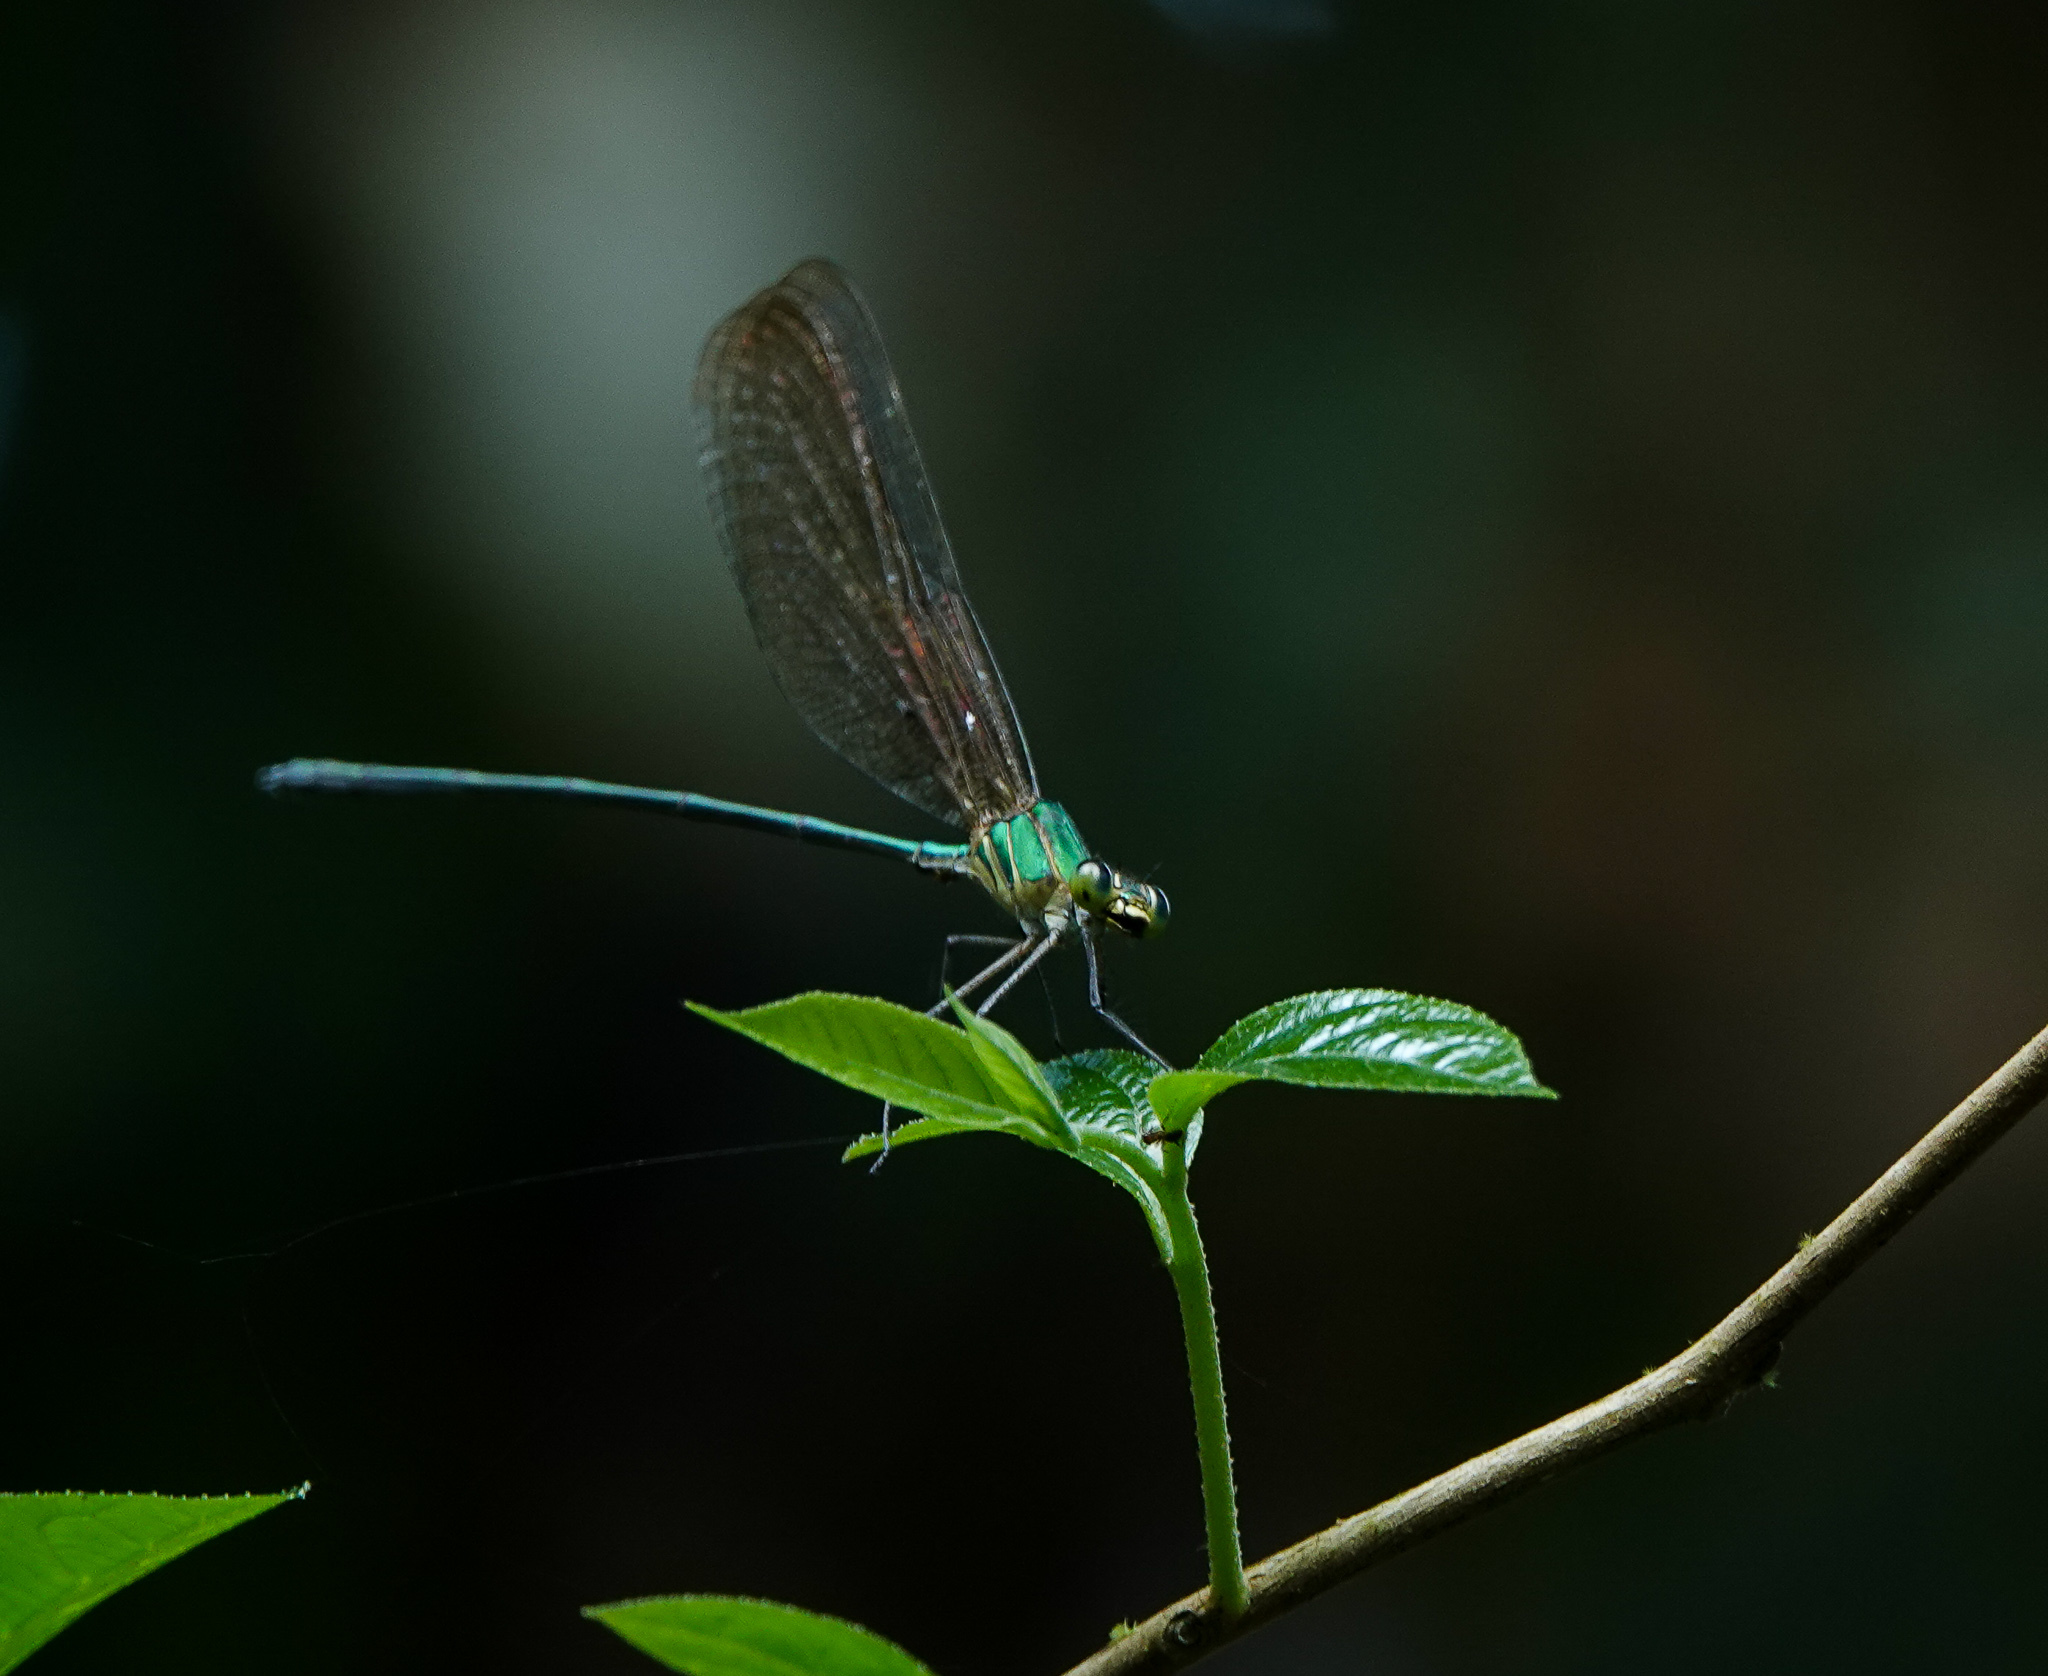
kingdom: Animalia
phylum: Arthropoda
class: Insecta
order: Odonata
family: Calopterygidae
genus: Vestalis
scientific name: Vestalis gracilis
